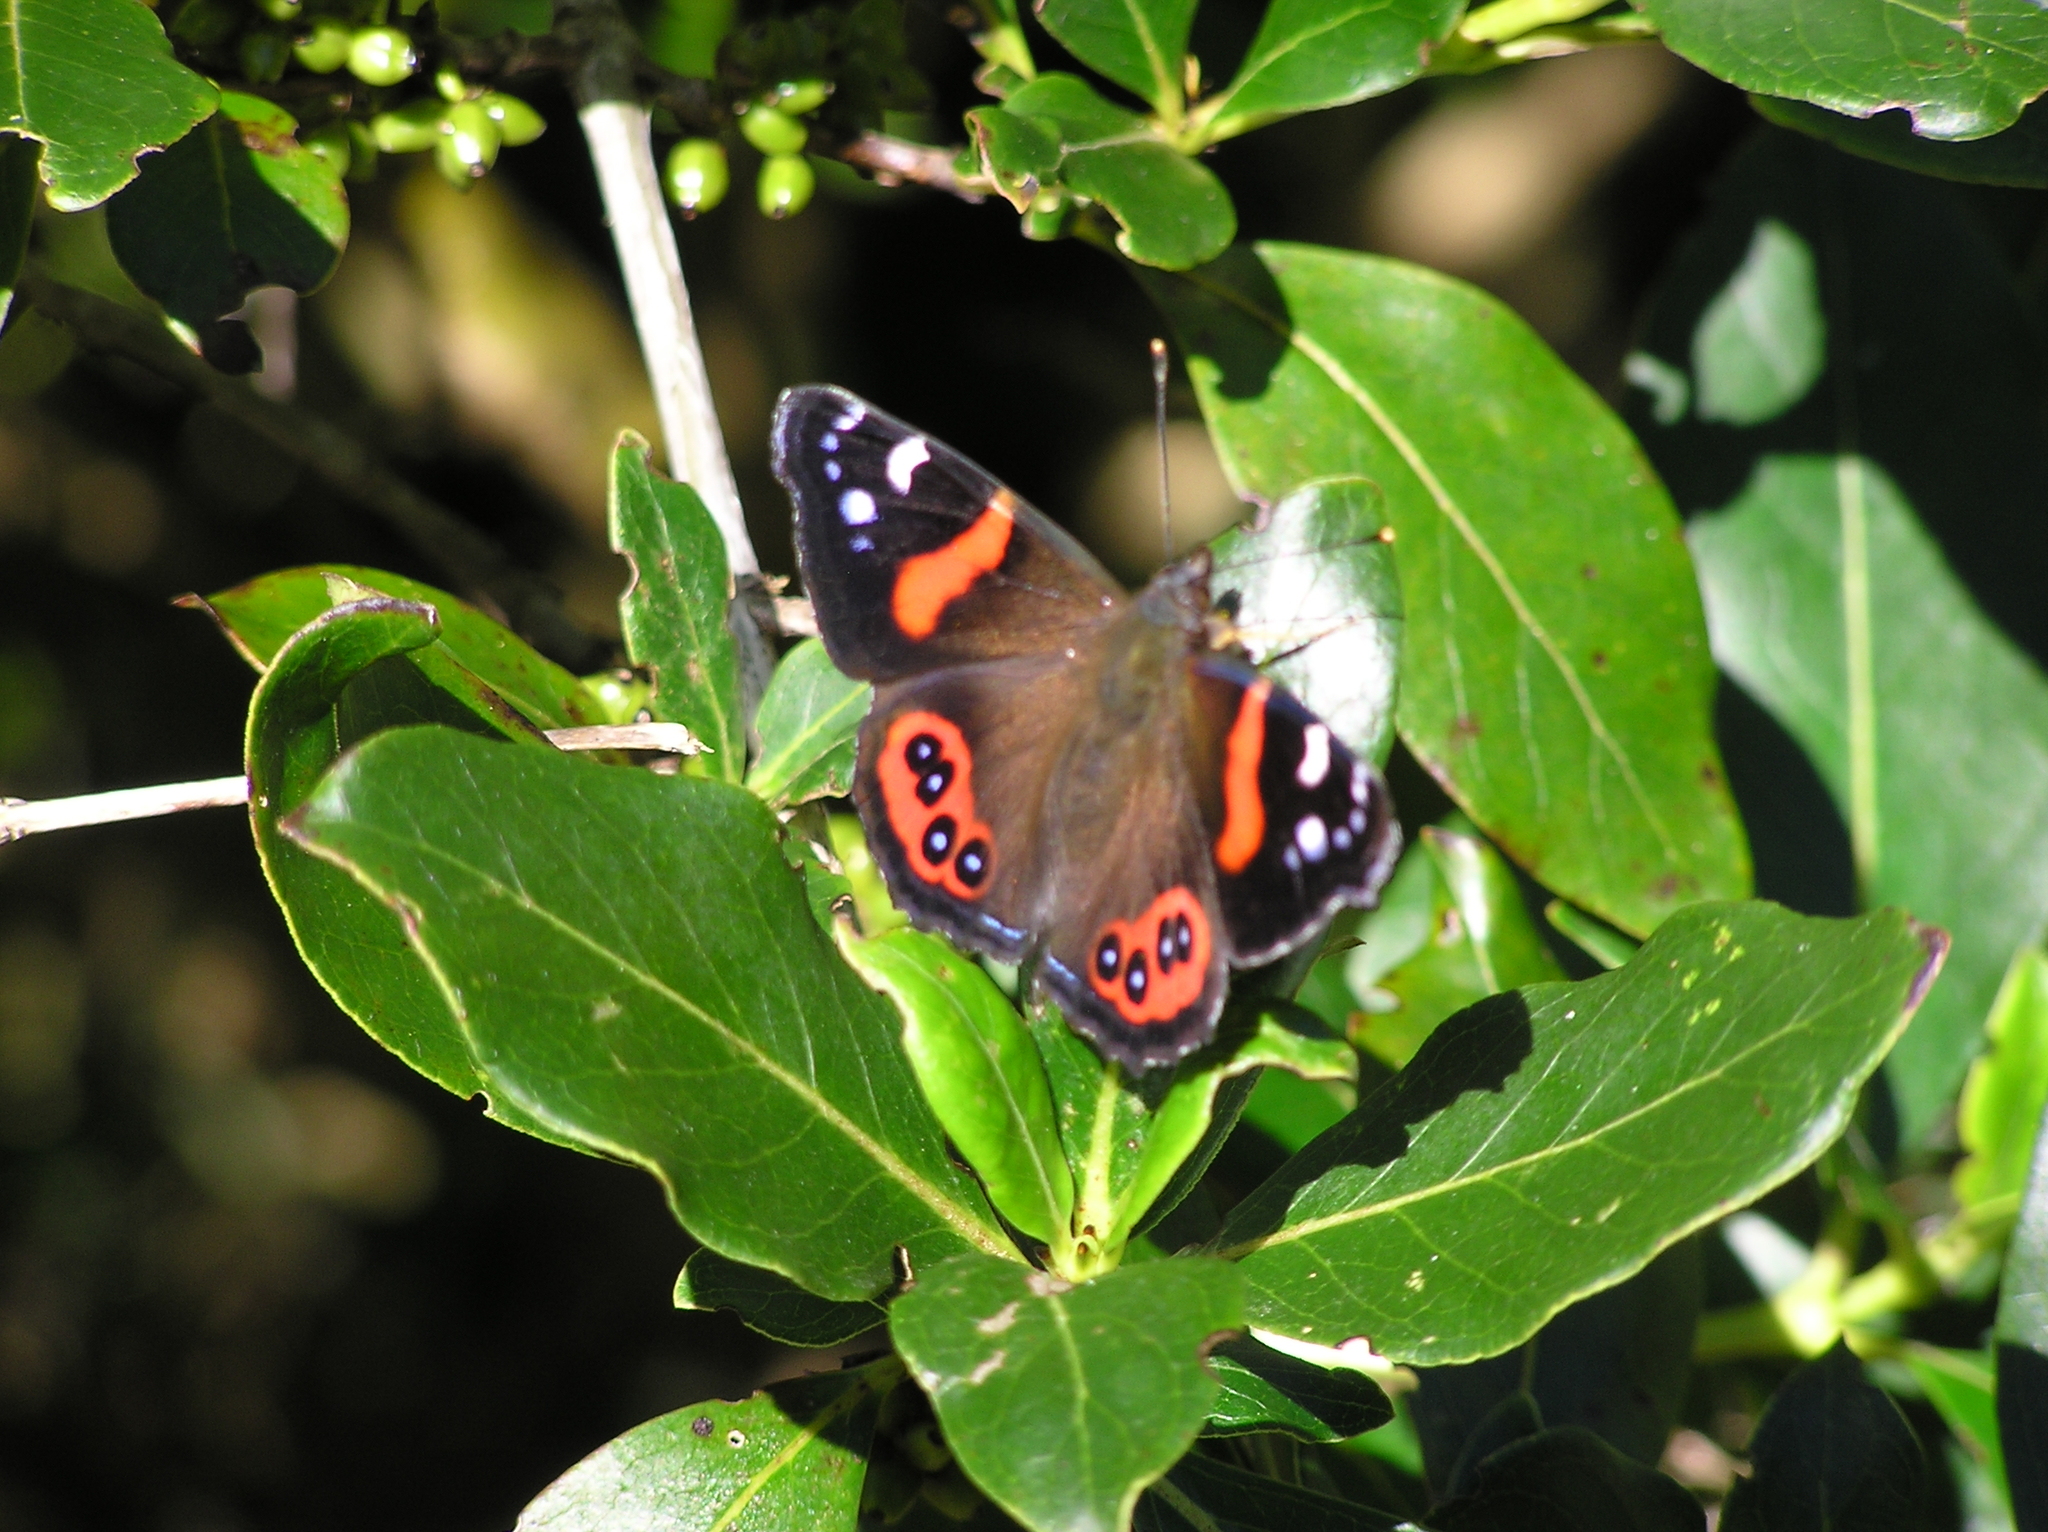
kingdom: Animalia
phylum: Arthropoda
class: Insecta
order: Lepidoptera
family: Nymphalidae
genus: Vanessa
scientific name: Vanessa gonerilla
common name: New zealand red admiral
